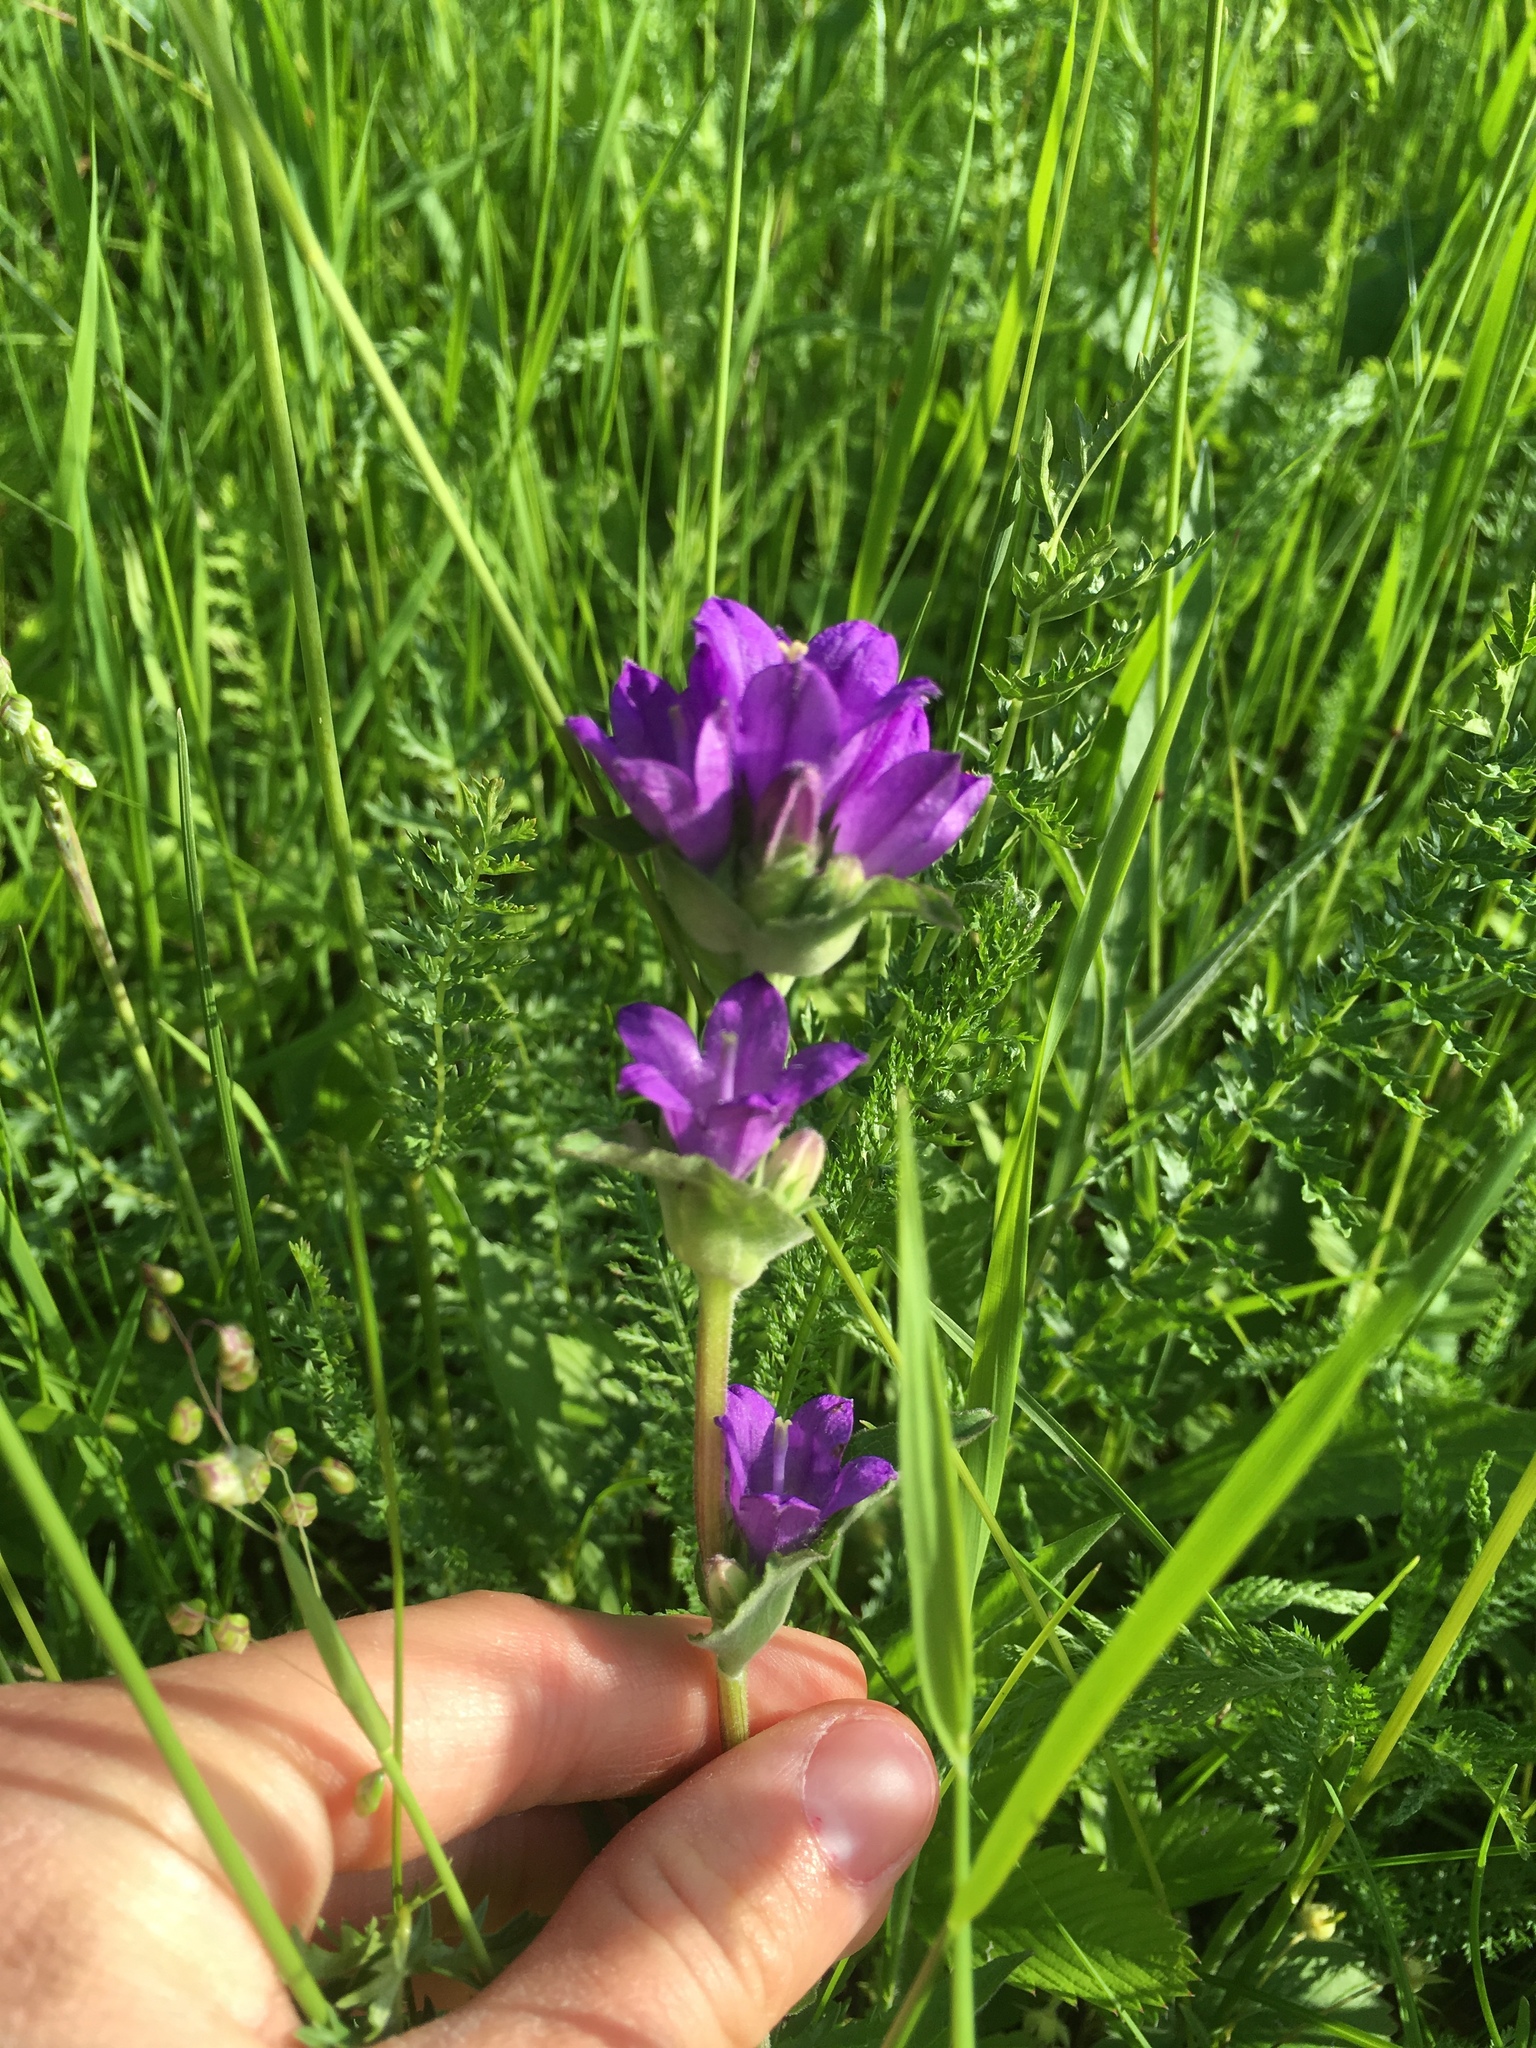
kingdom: Plantae
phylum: Tracheophyta
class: Magnoliopsida
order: Asterales
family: Campanulaceae
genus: Campanula
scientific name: Campanula glomerata
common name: Clustered bellflower
